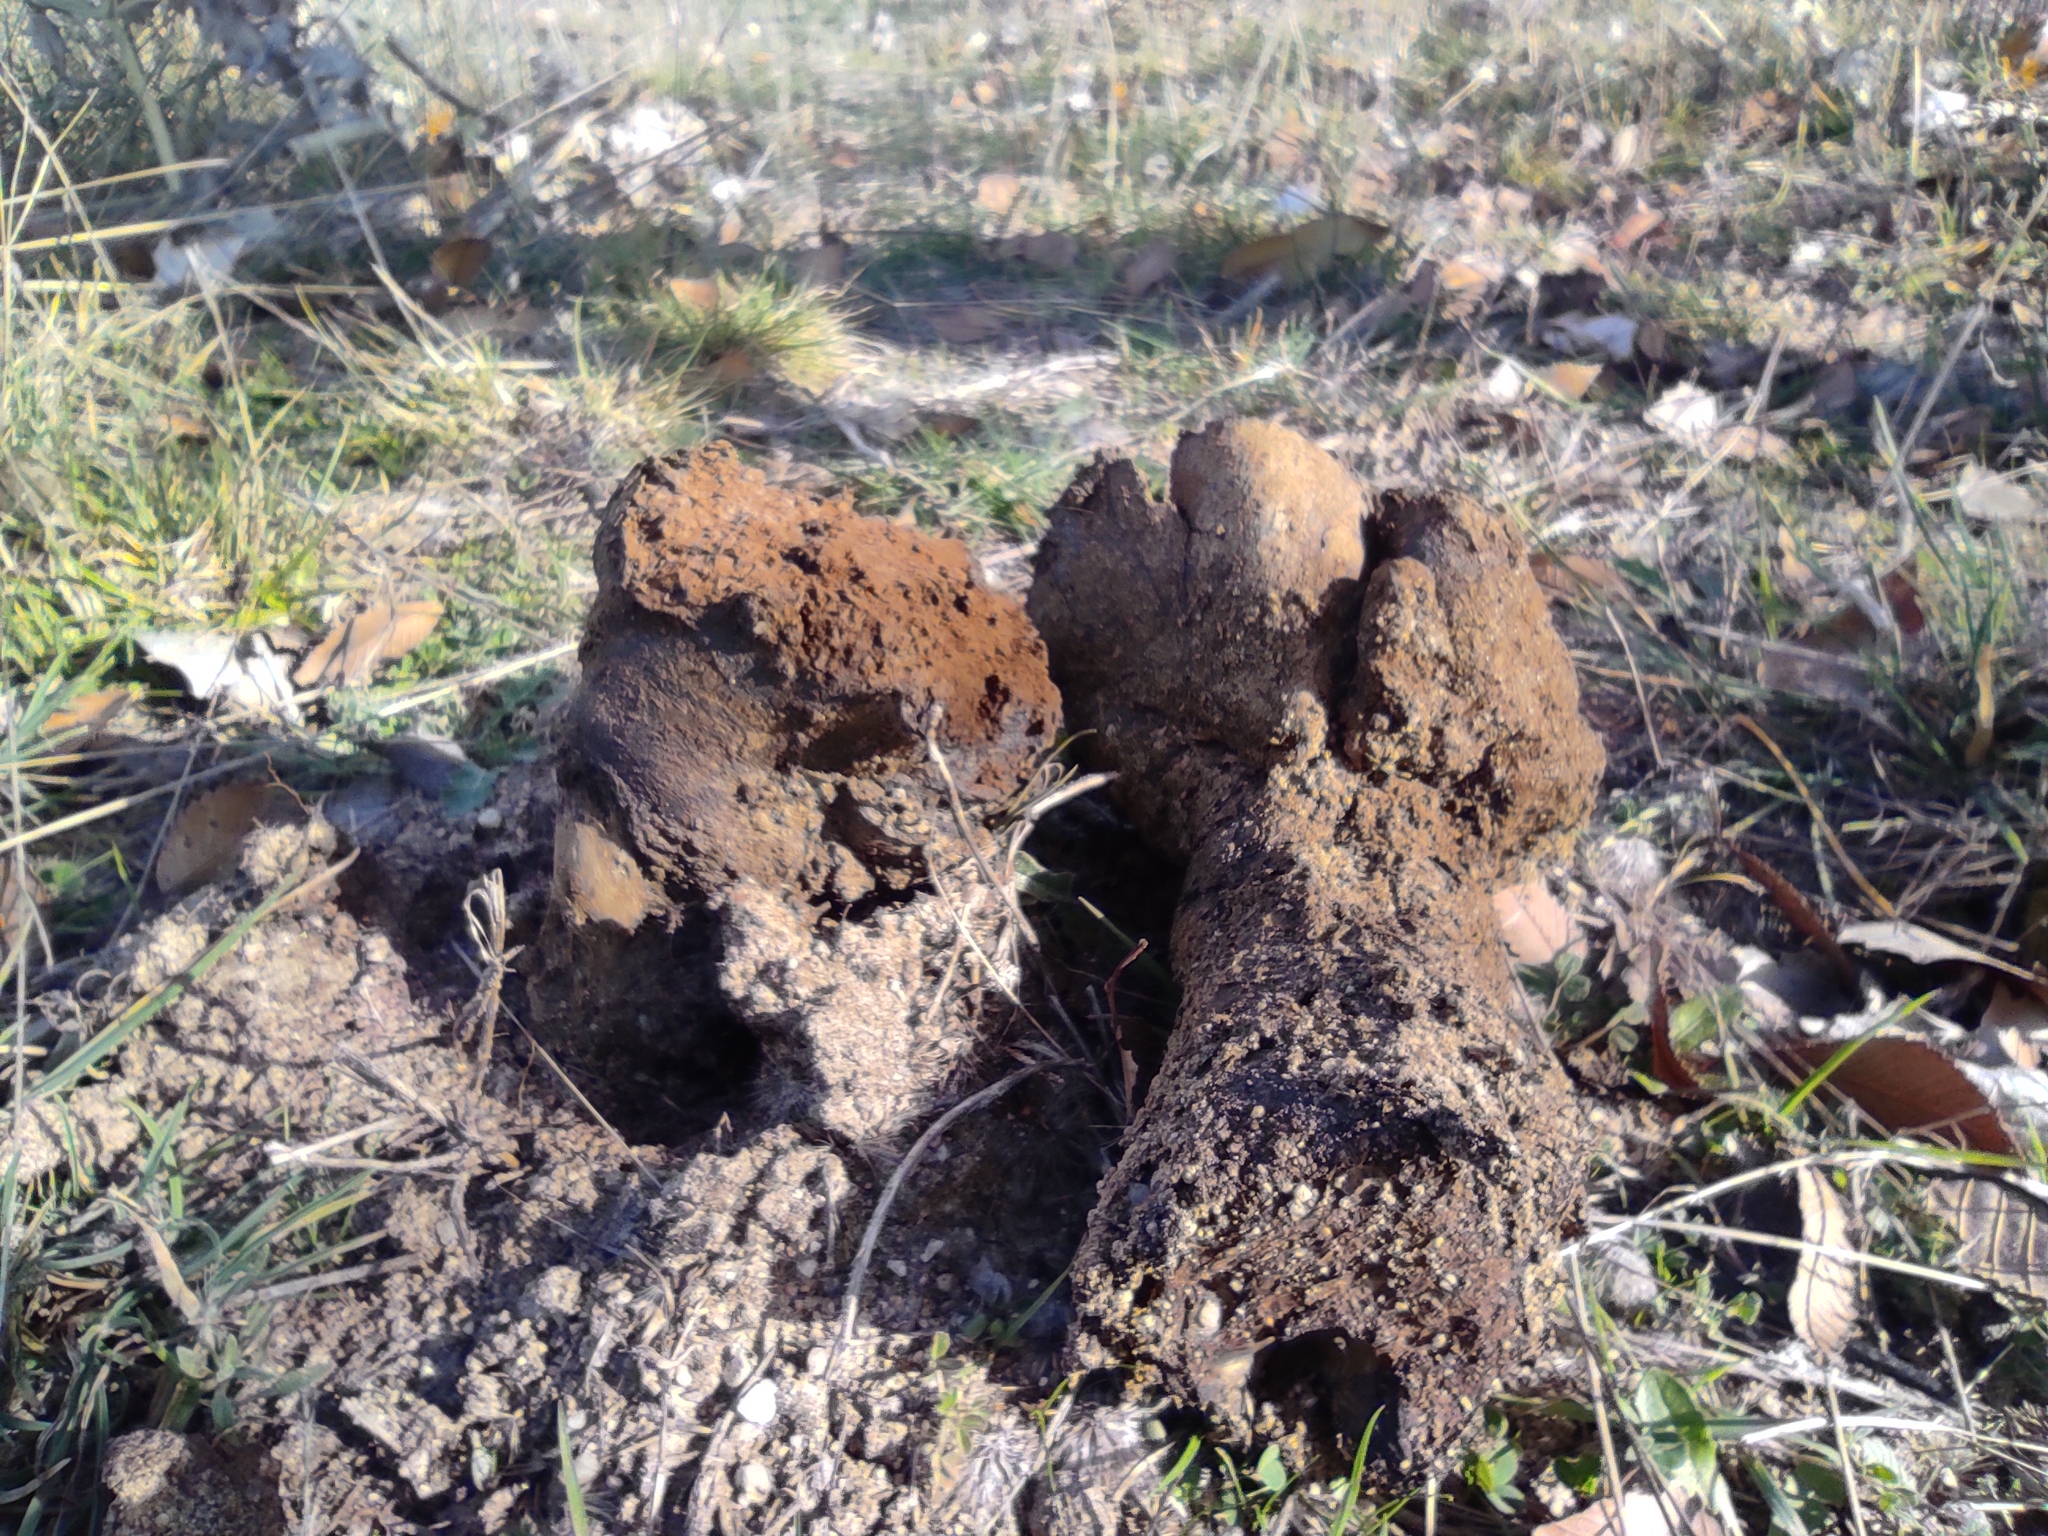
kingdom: Fungi
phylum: Basidiomycota
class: Agaricomycetes
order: Boletales
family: Sclerodermataceae
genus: Pisolithus
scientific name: Pisolithus arhizus
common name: Dyeball
